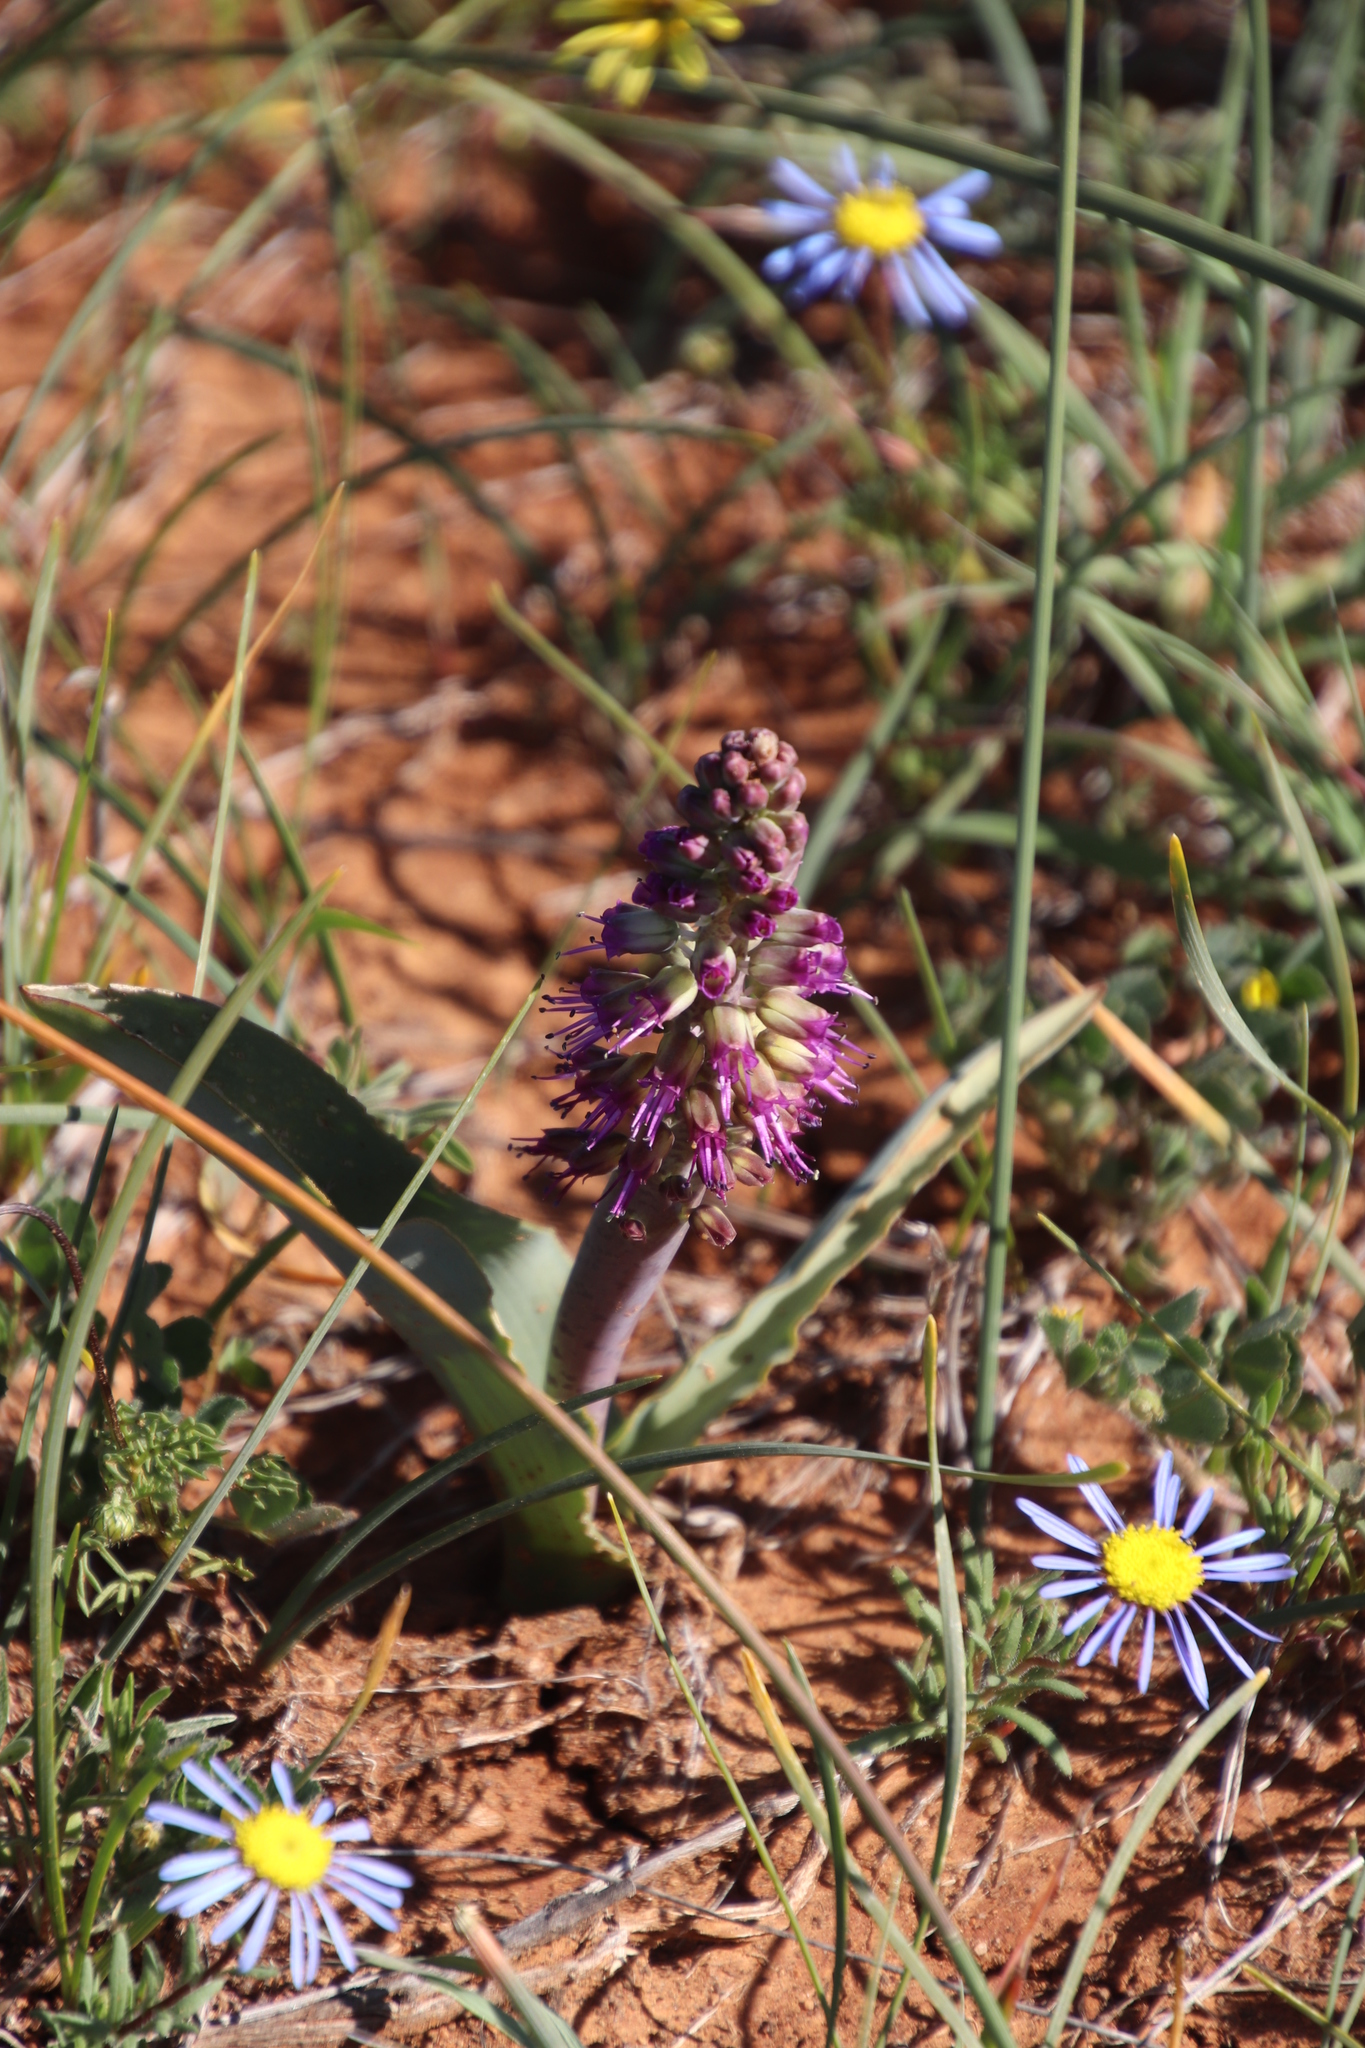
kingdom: Plantae
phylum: Tracheophyta
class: Liliopsida
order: Asparagales
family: Asparagaceae
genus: Lachenalia
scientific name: Lachenalia violacea
